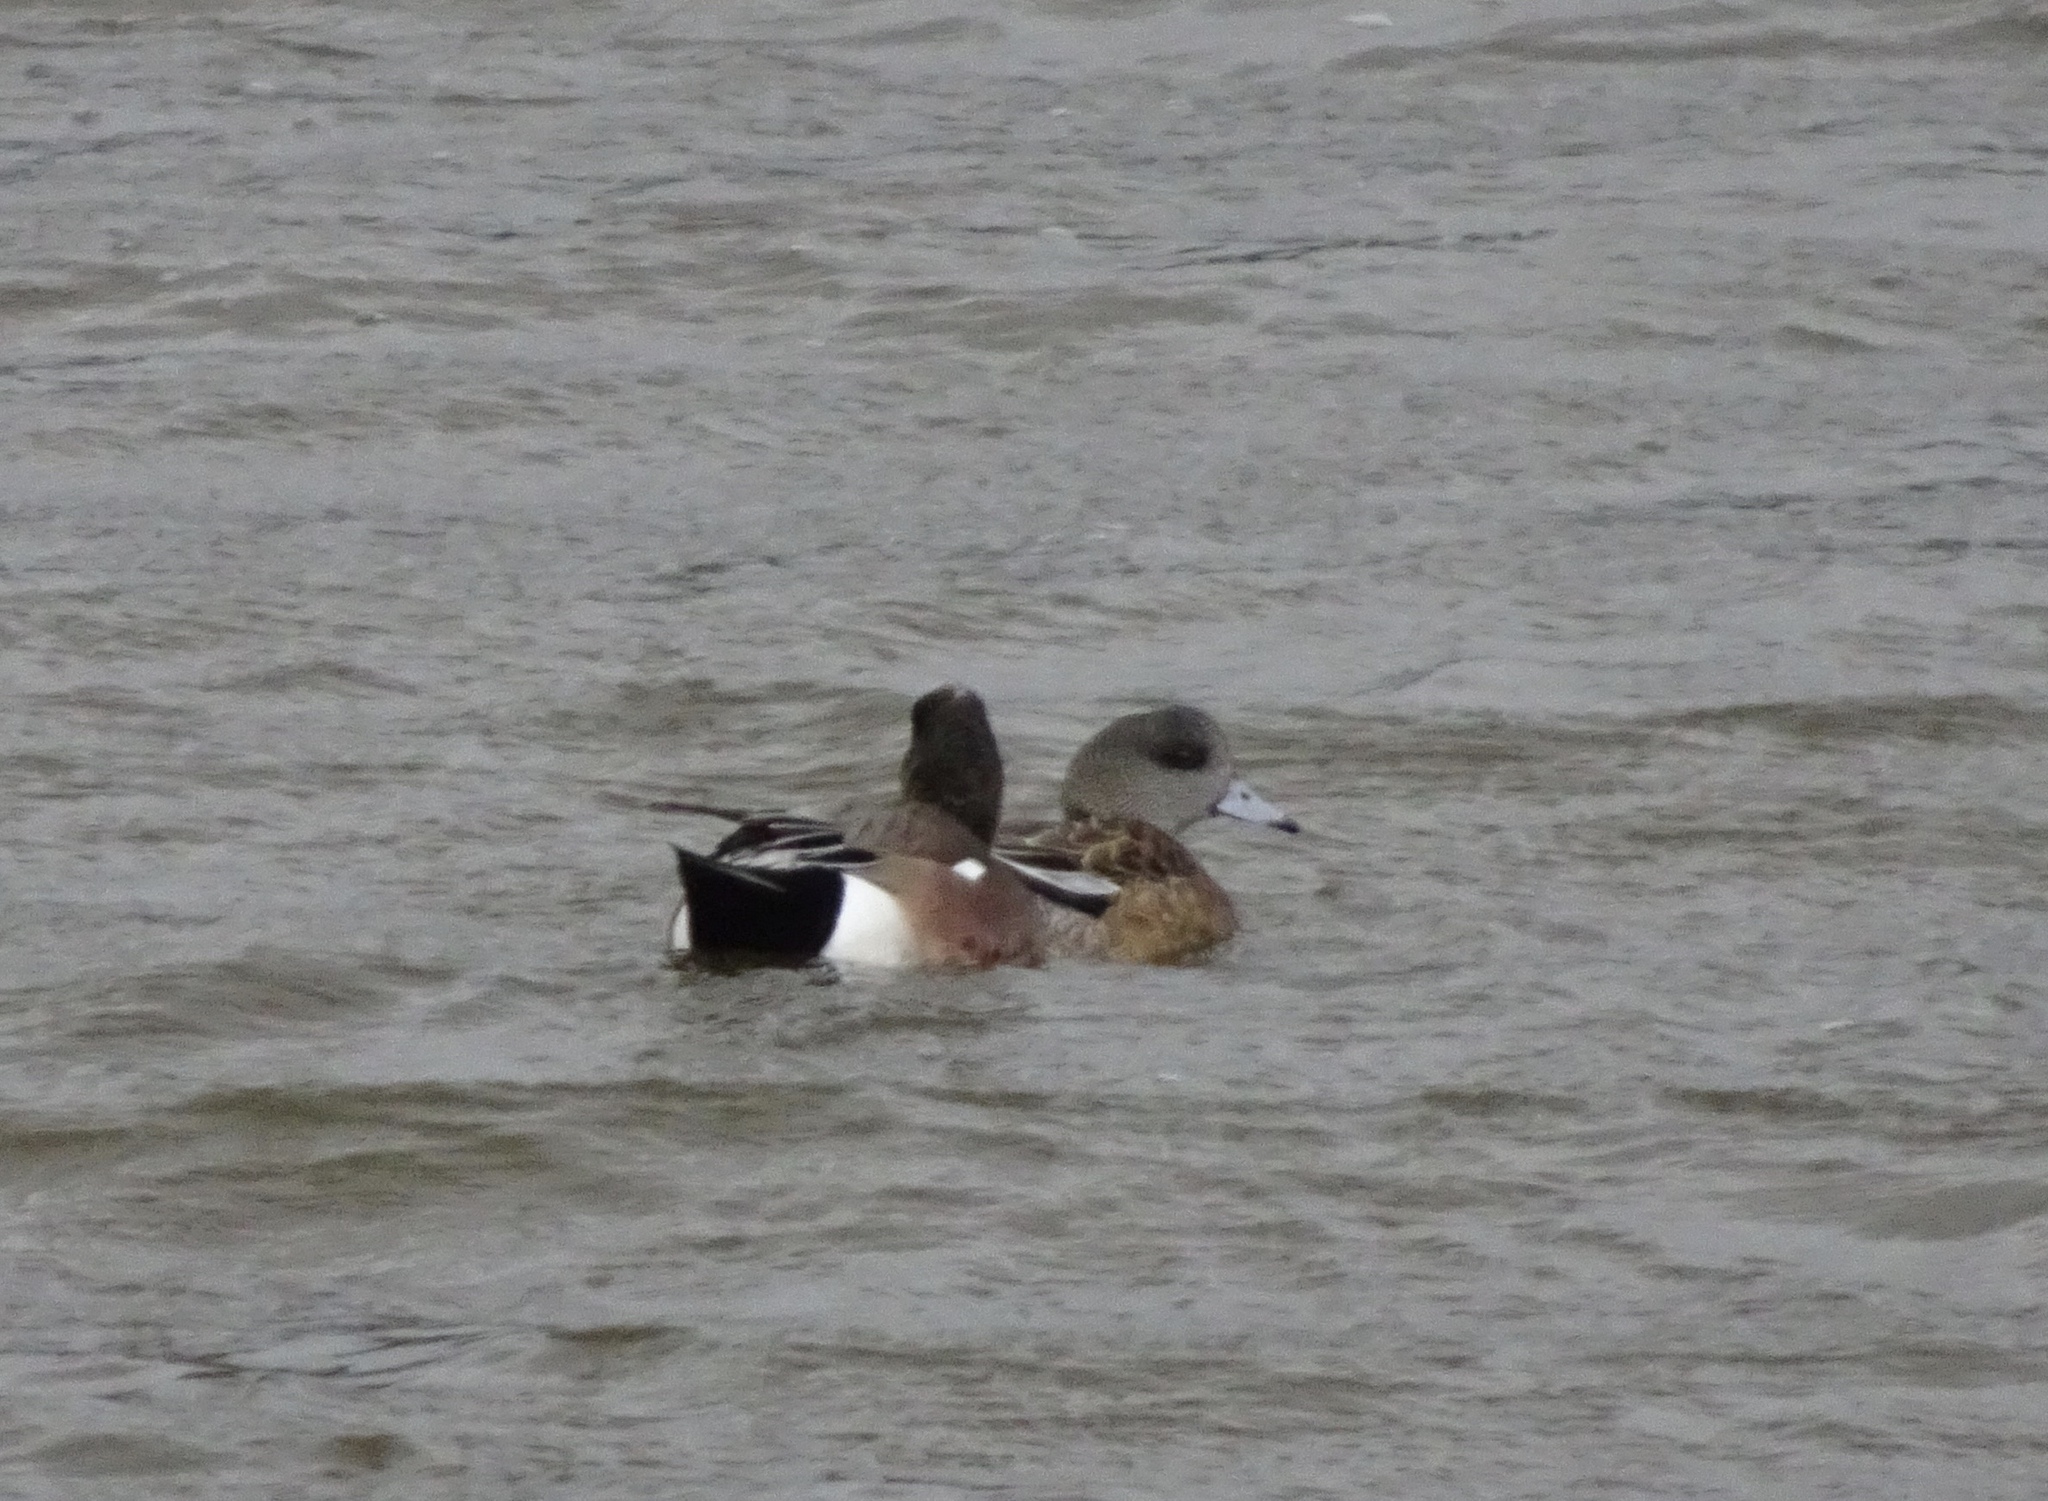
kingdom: Animalia
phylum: Chordata
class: Aves
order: Anseriformes
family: Anatidae
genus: Mareca
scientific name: Mareca americana
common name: American wigeon
